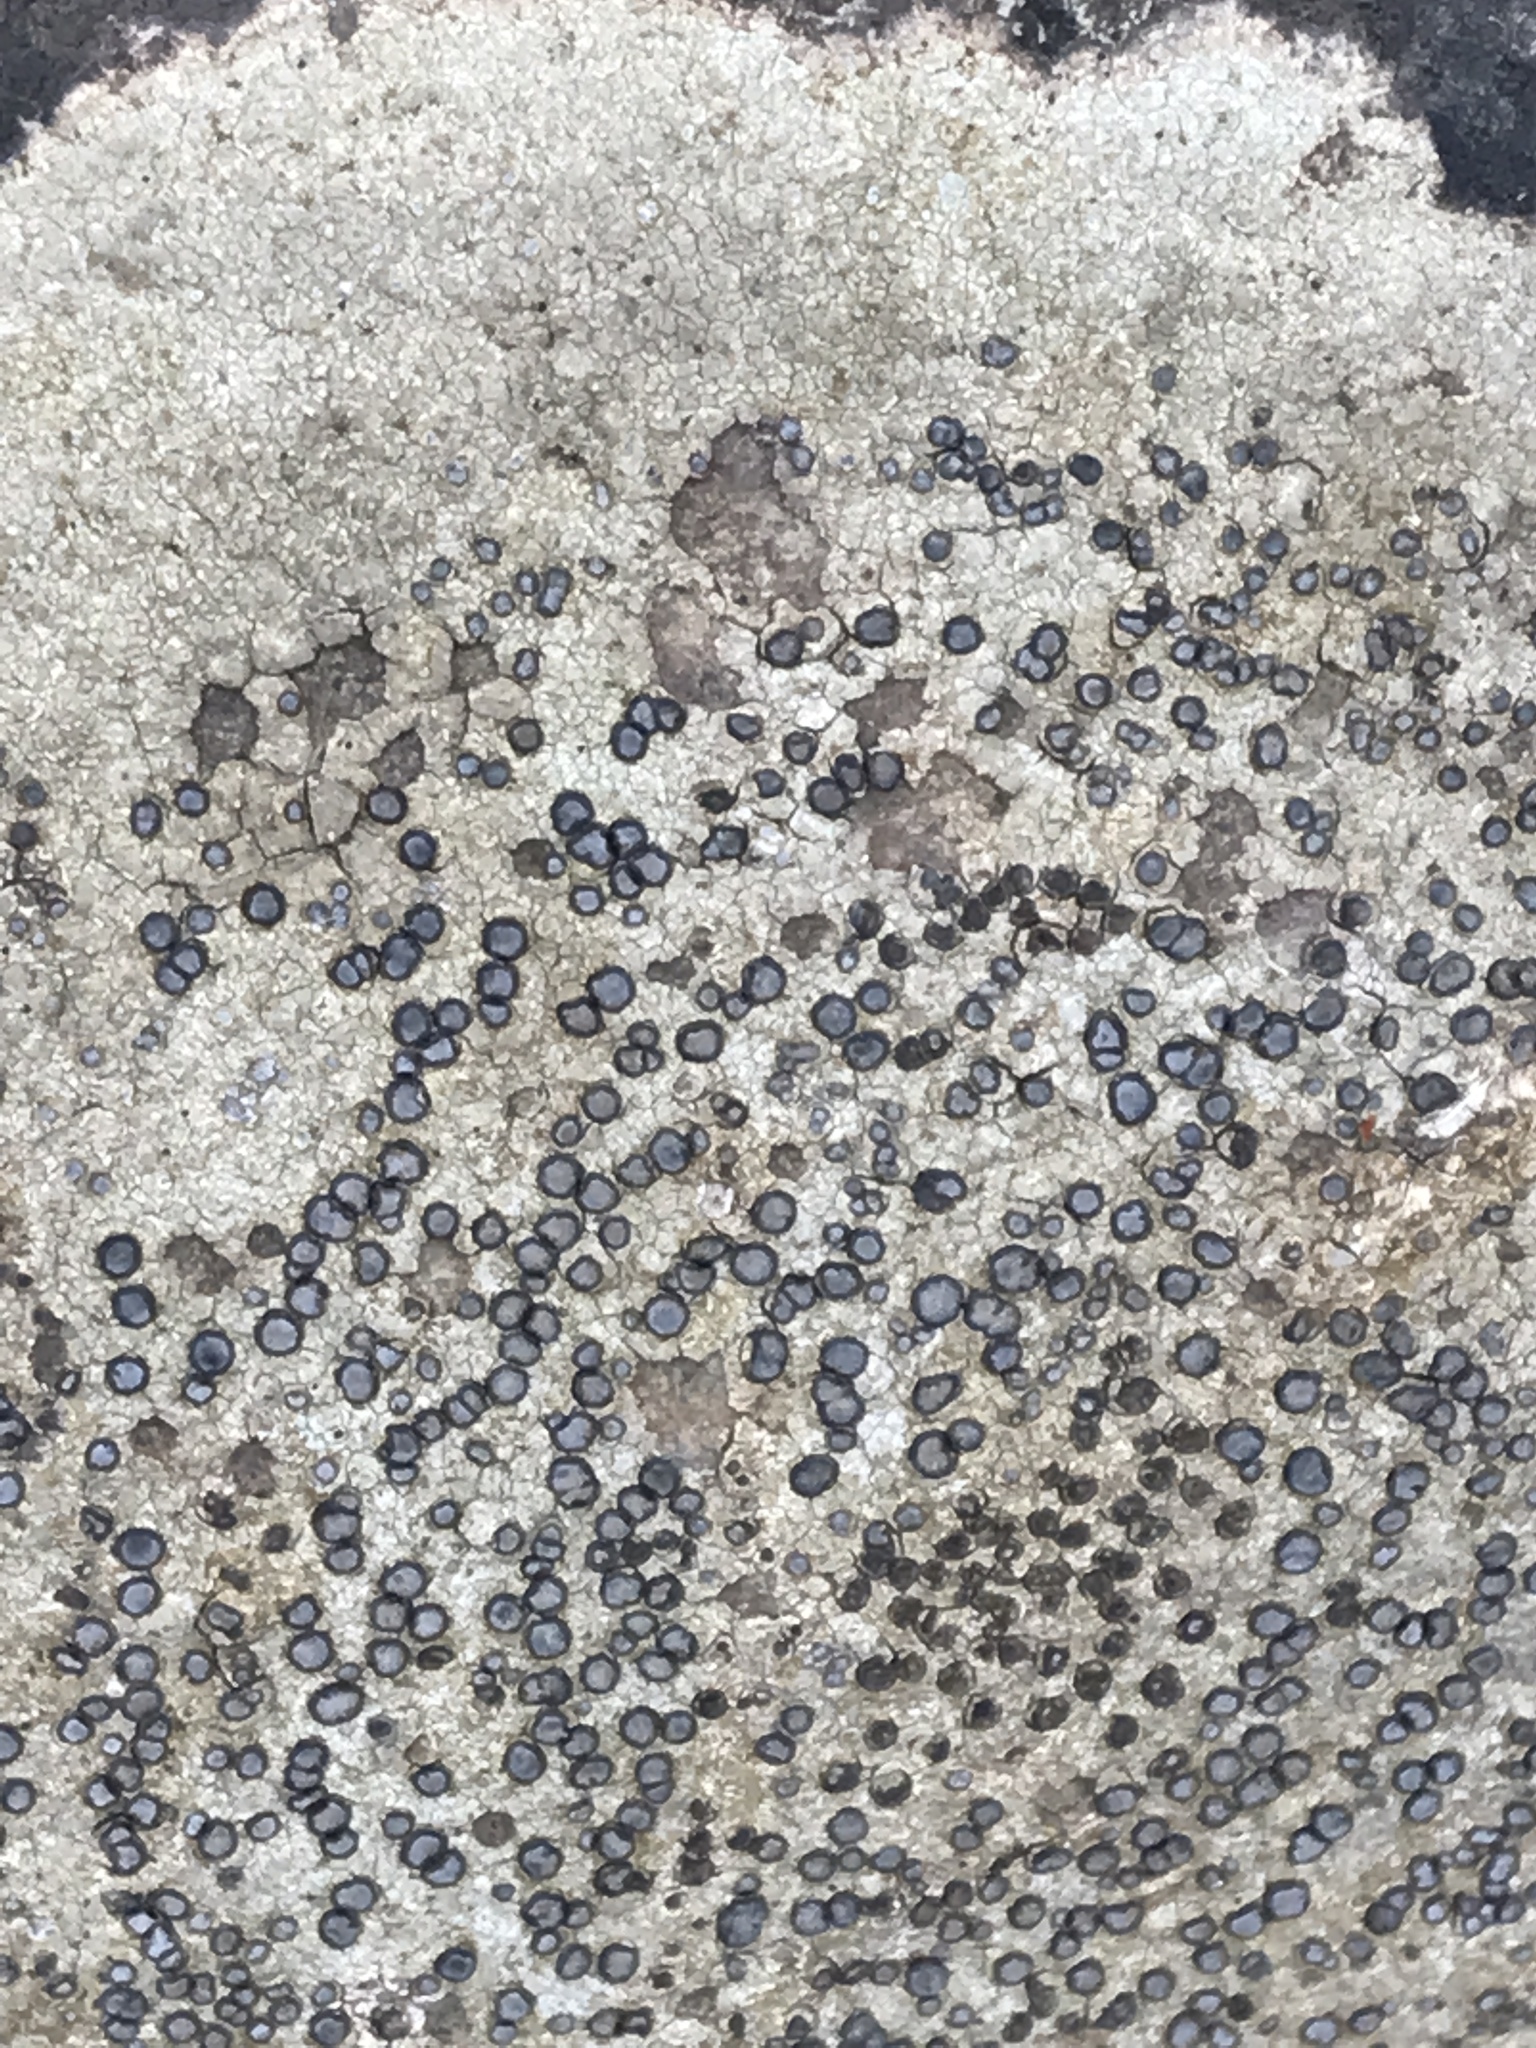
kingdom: Fungi
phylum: Ascomycota
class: Lecanoromycetes
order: Lecideales
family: Lecideaceae
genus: Porpidia
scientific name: Porpidia albocaerulescens
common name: Smokey-eyed boulder lichen
